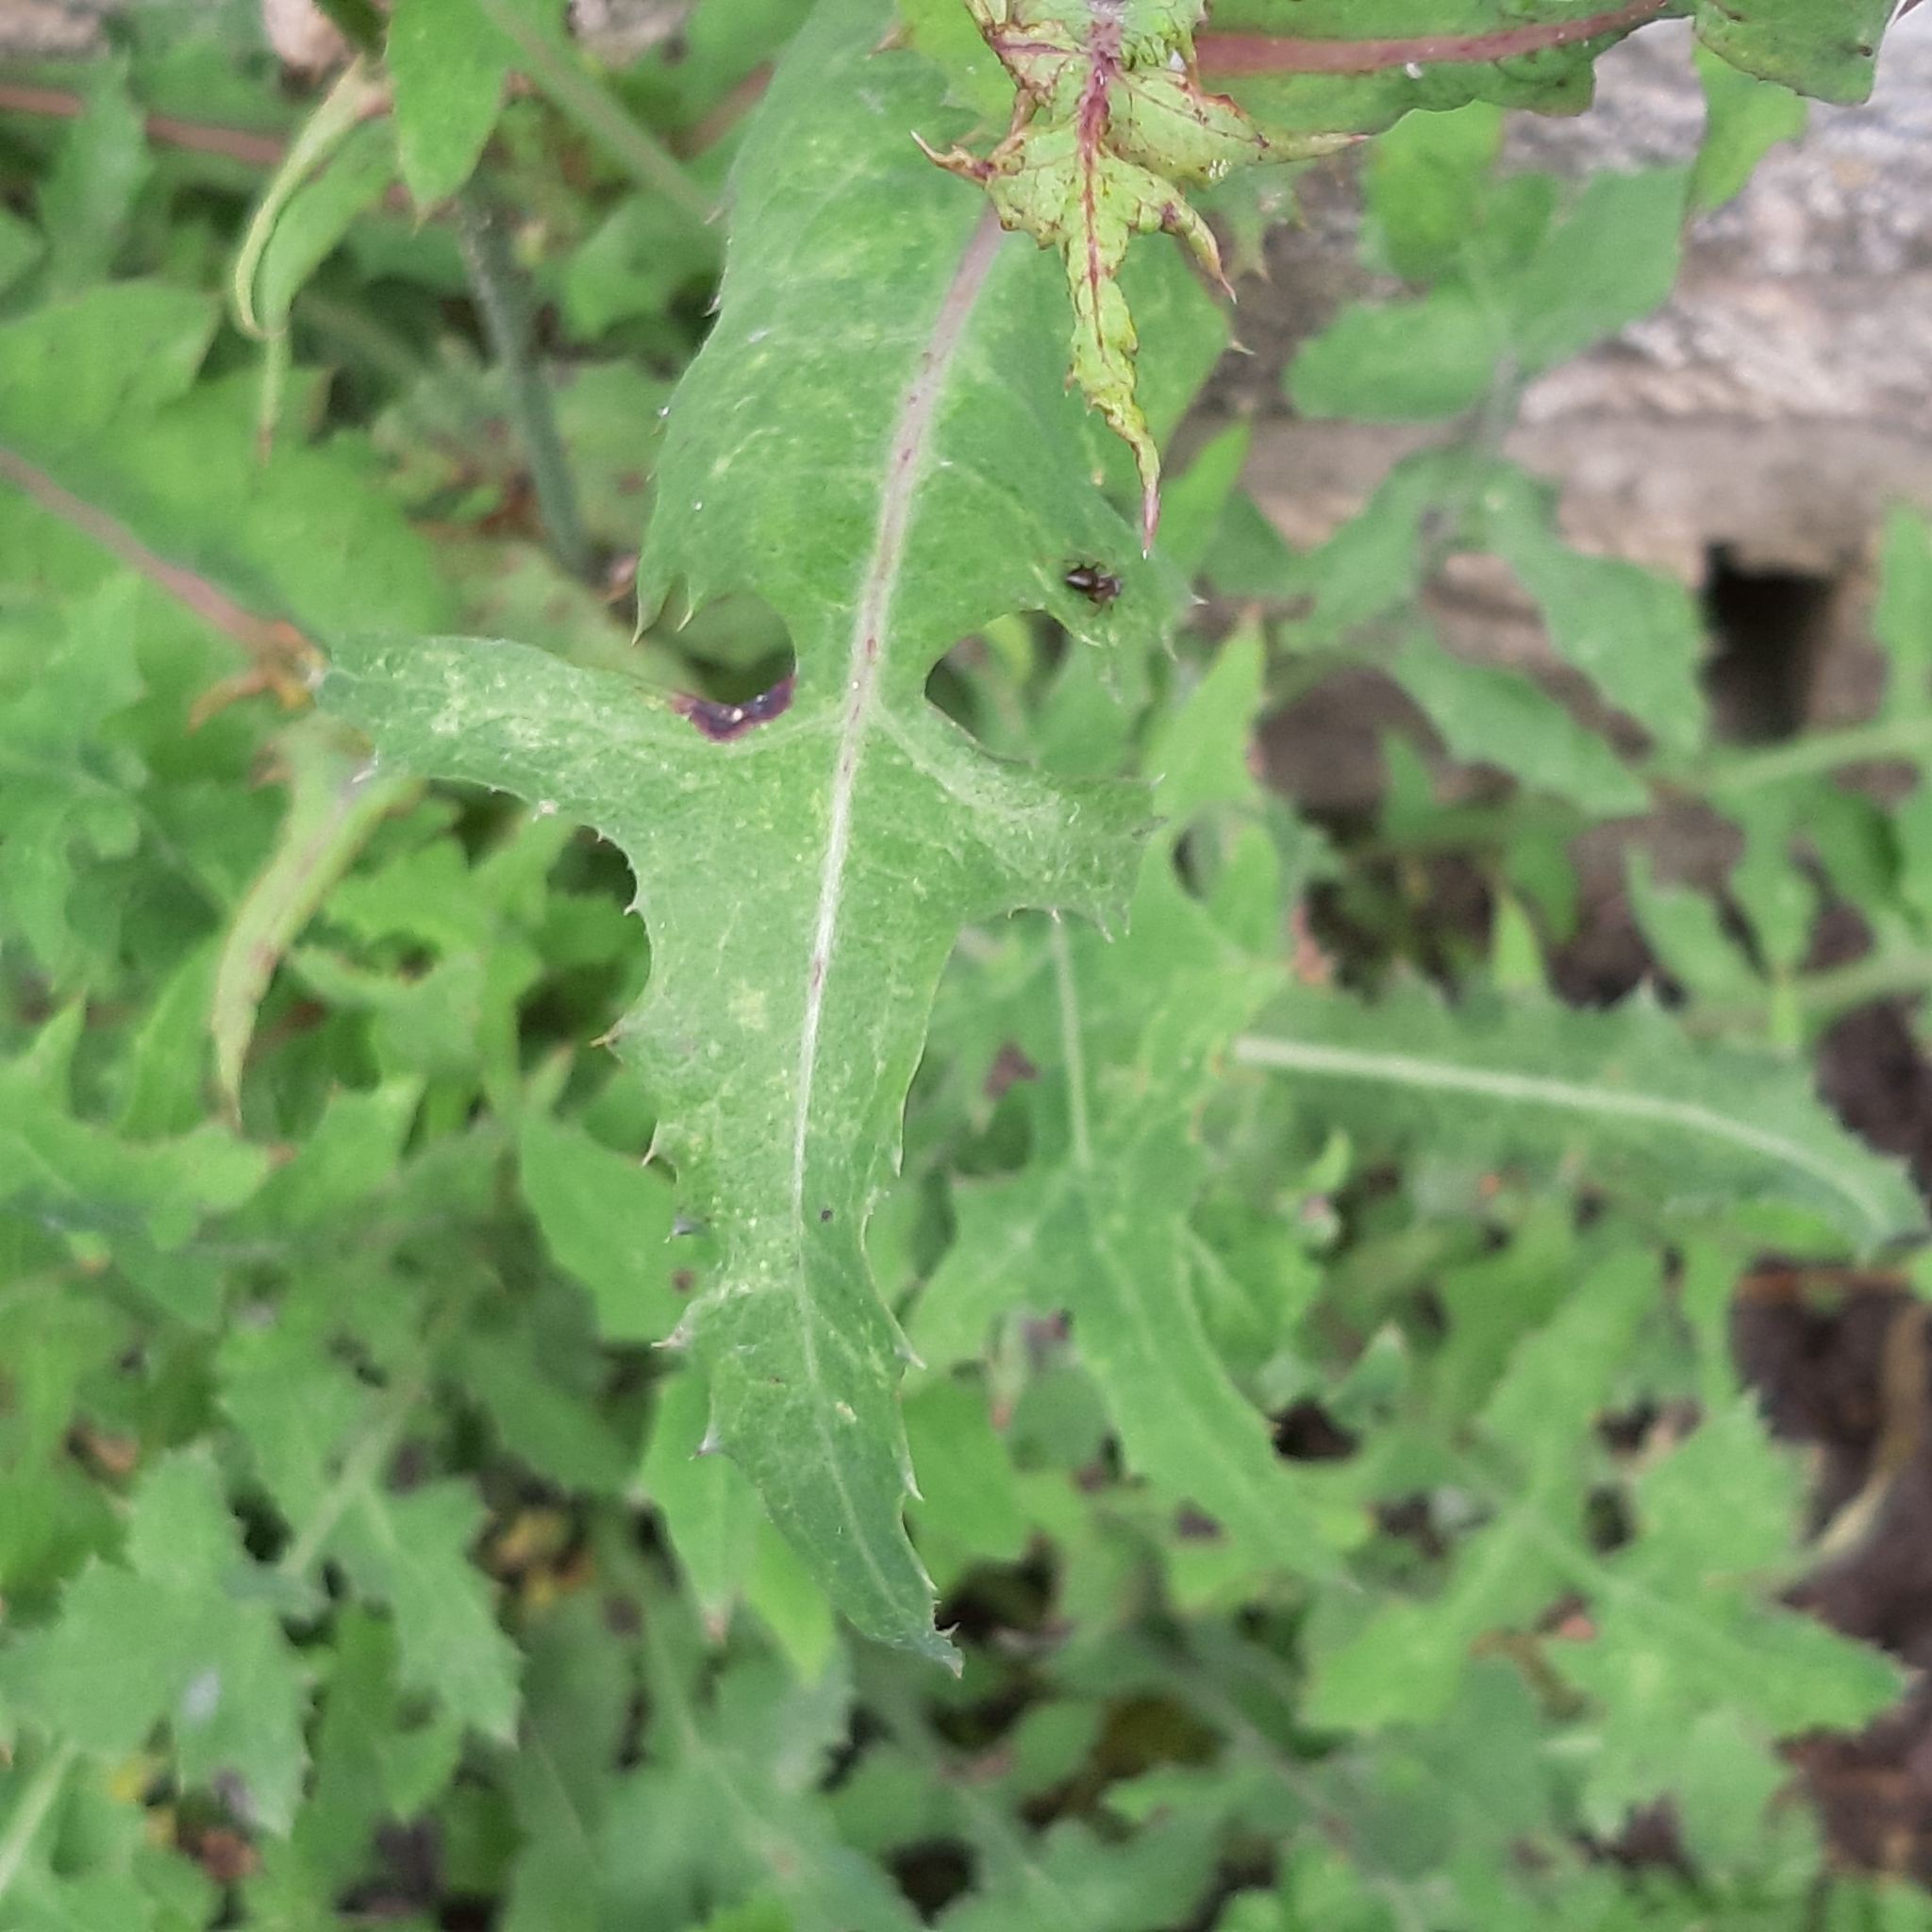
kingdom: Plantae
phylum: Tracheophyta
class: Magnoliopsida
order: Asterales
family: Asteraceae
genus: Sonchus
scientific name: Sonchus oleraceus
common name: Common sowthistle
